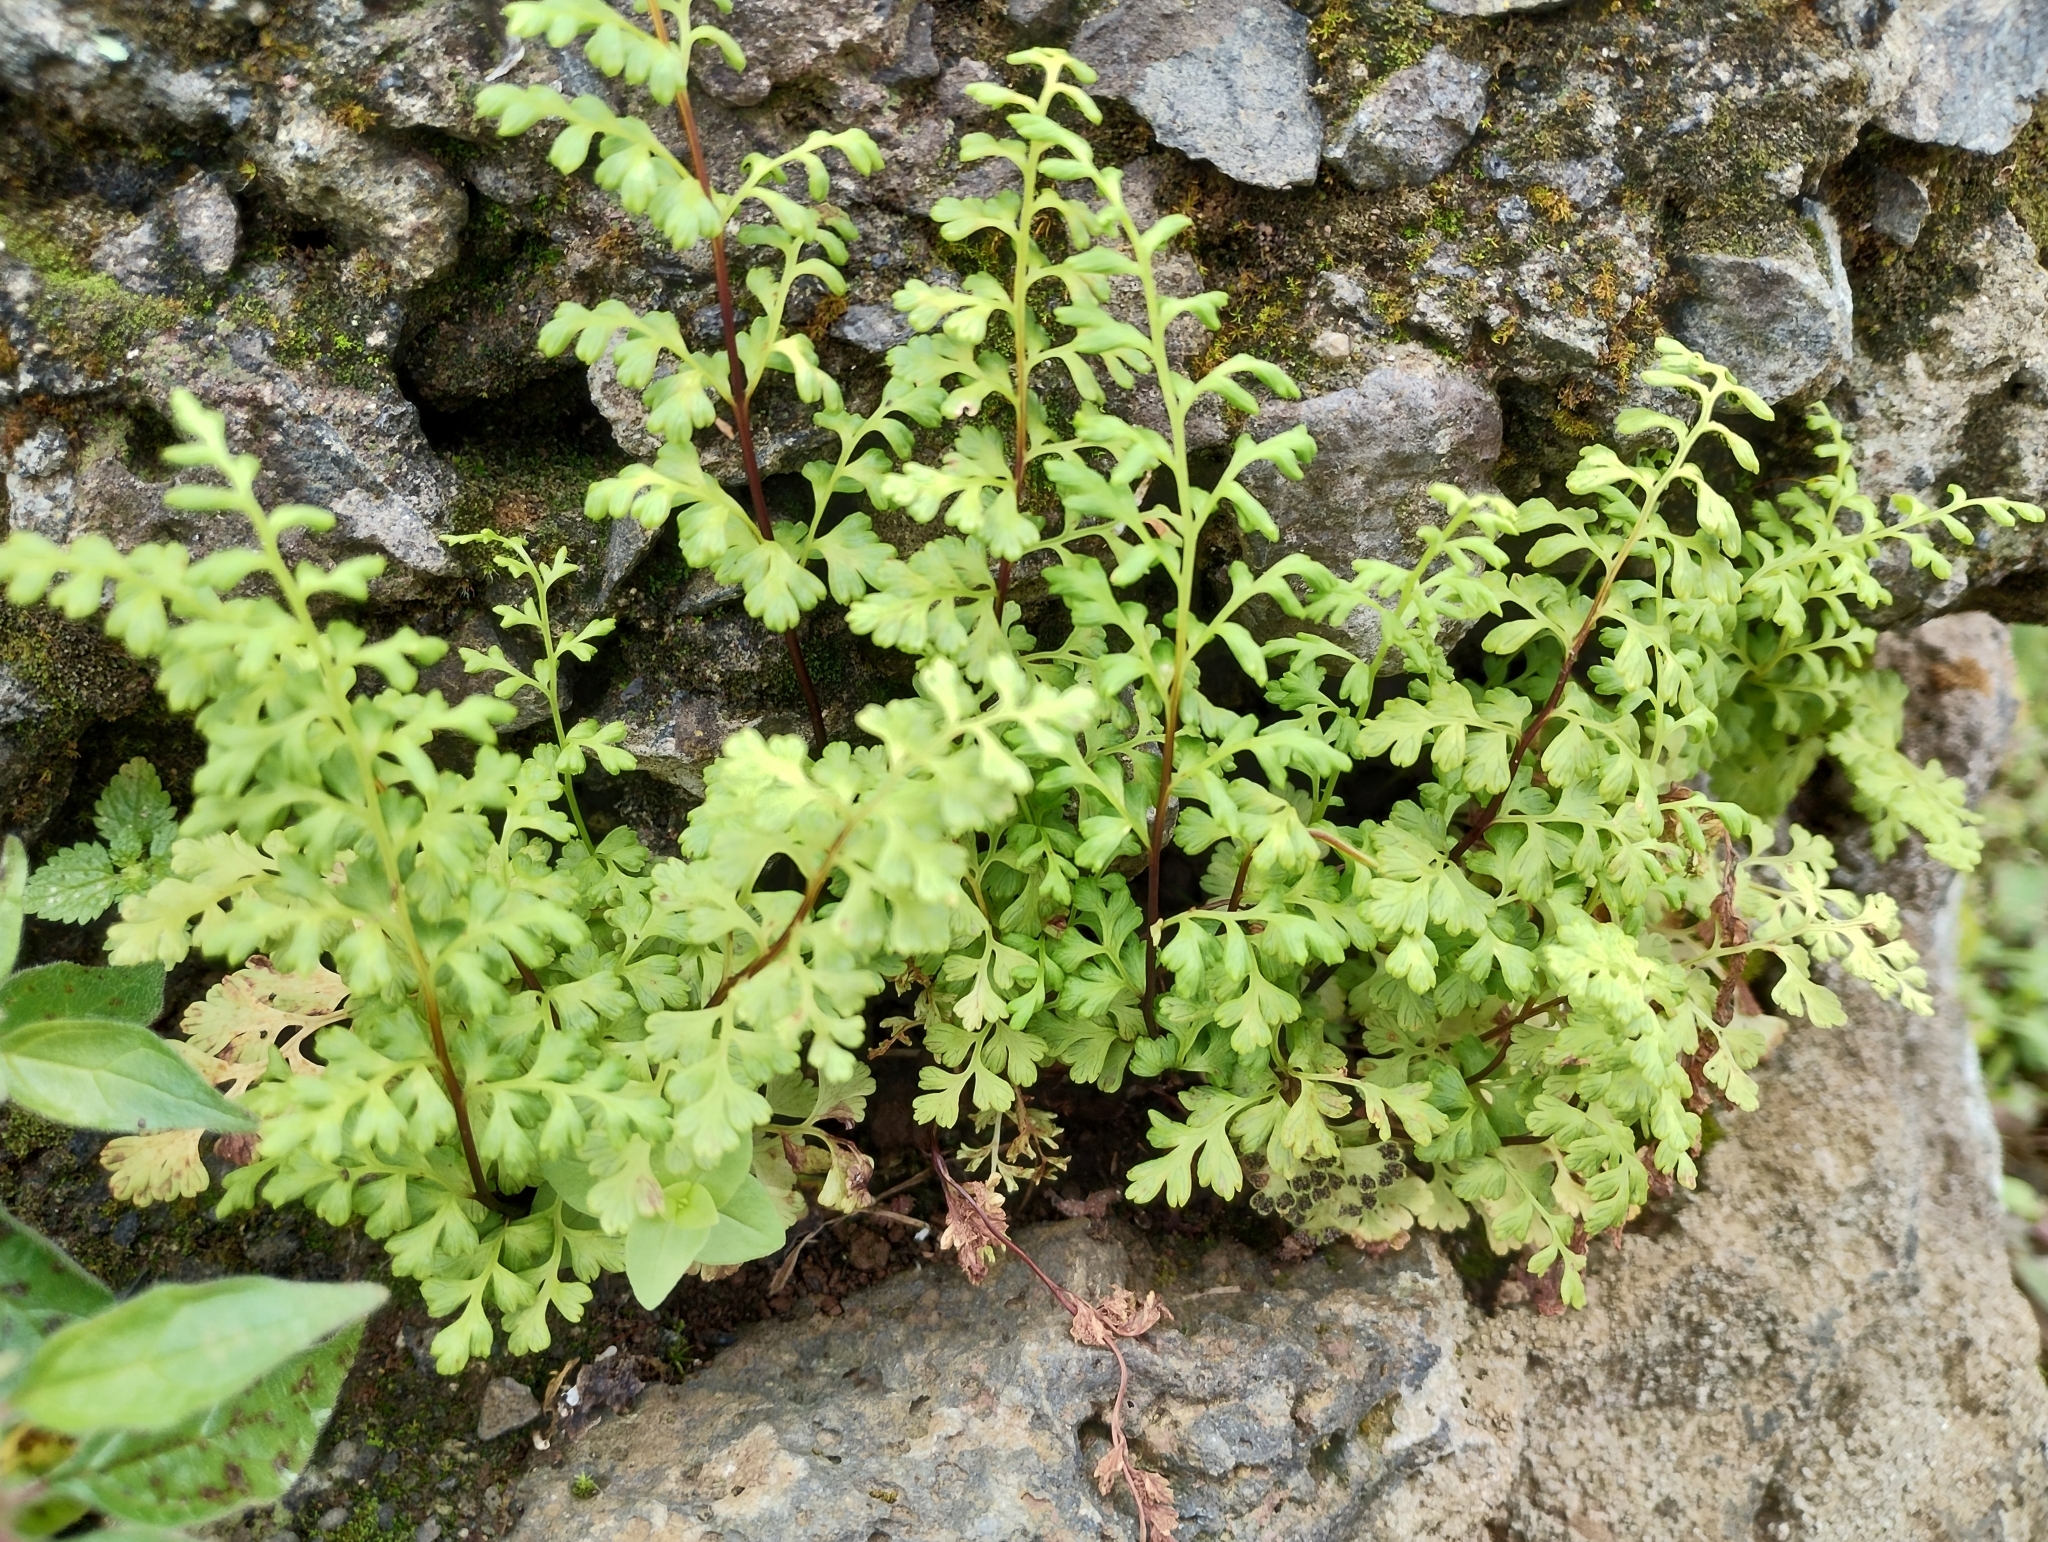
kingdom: Plantae
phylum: Tracheophyta
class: Polypodiopsida
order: Polypodiales
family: Pteridaceae
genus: Anogramma
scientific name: Anogramma leptophylla
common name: Jersey fern
